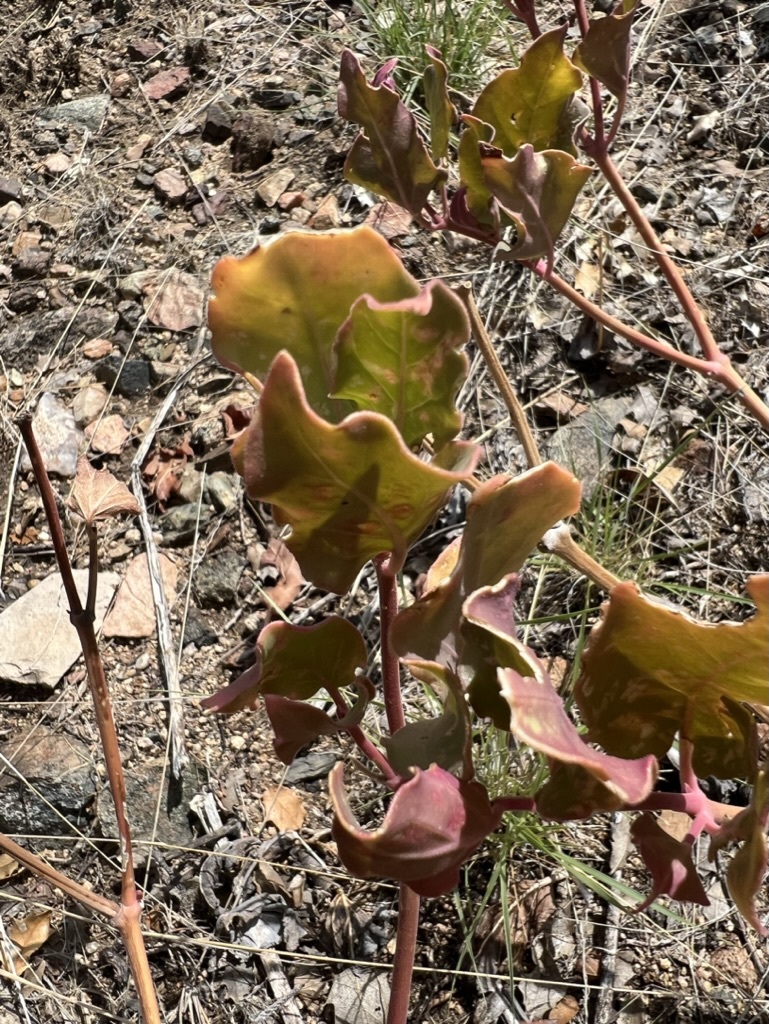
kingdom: Plantae
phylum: Tracheophyta
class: Magnoliopsida
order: Caryophyllales
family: Nyctaginaceae
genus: Mirabilis
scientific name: Mirabilis multiflora
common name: Froebel's four-o'clock
